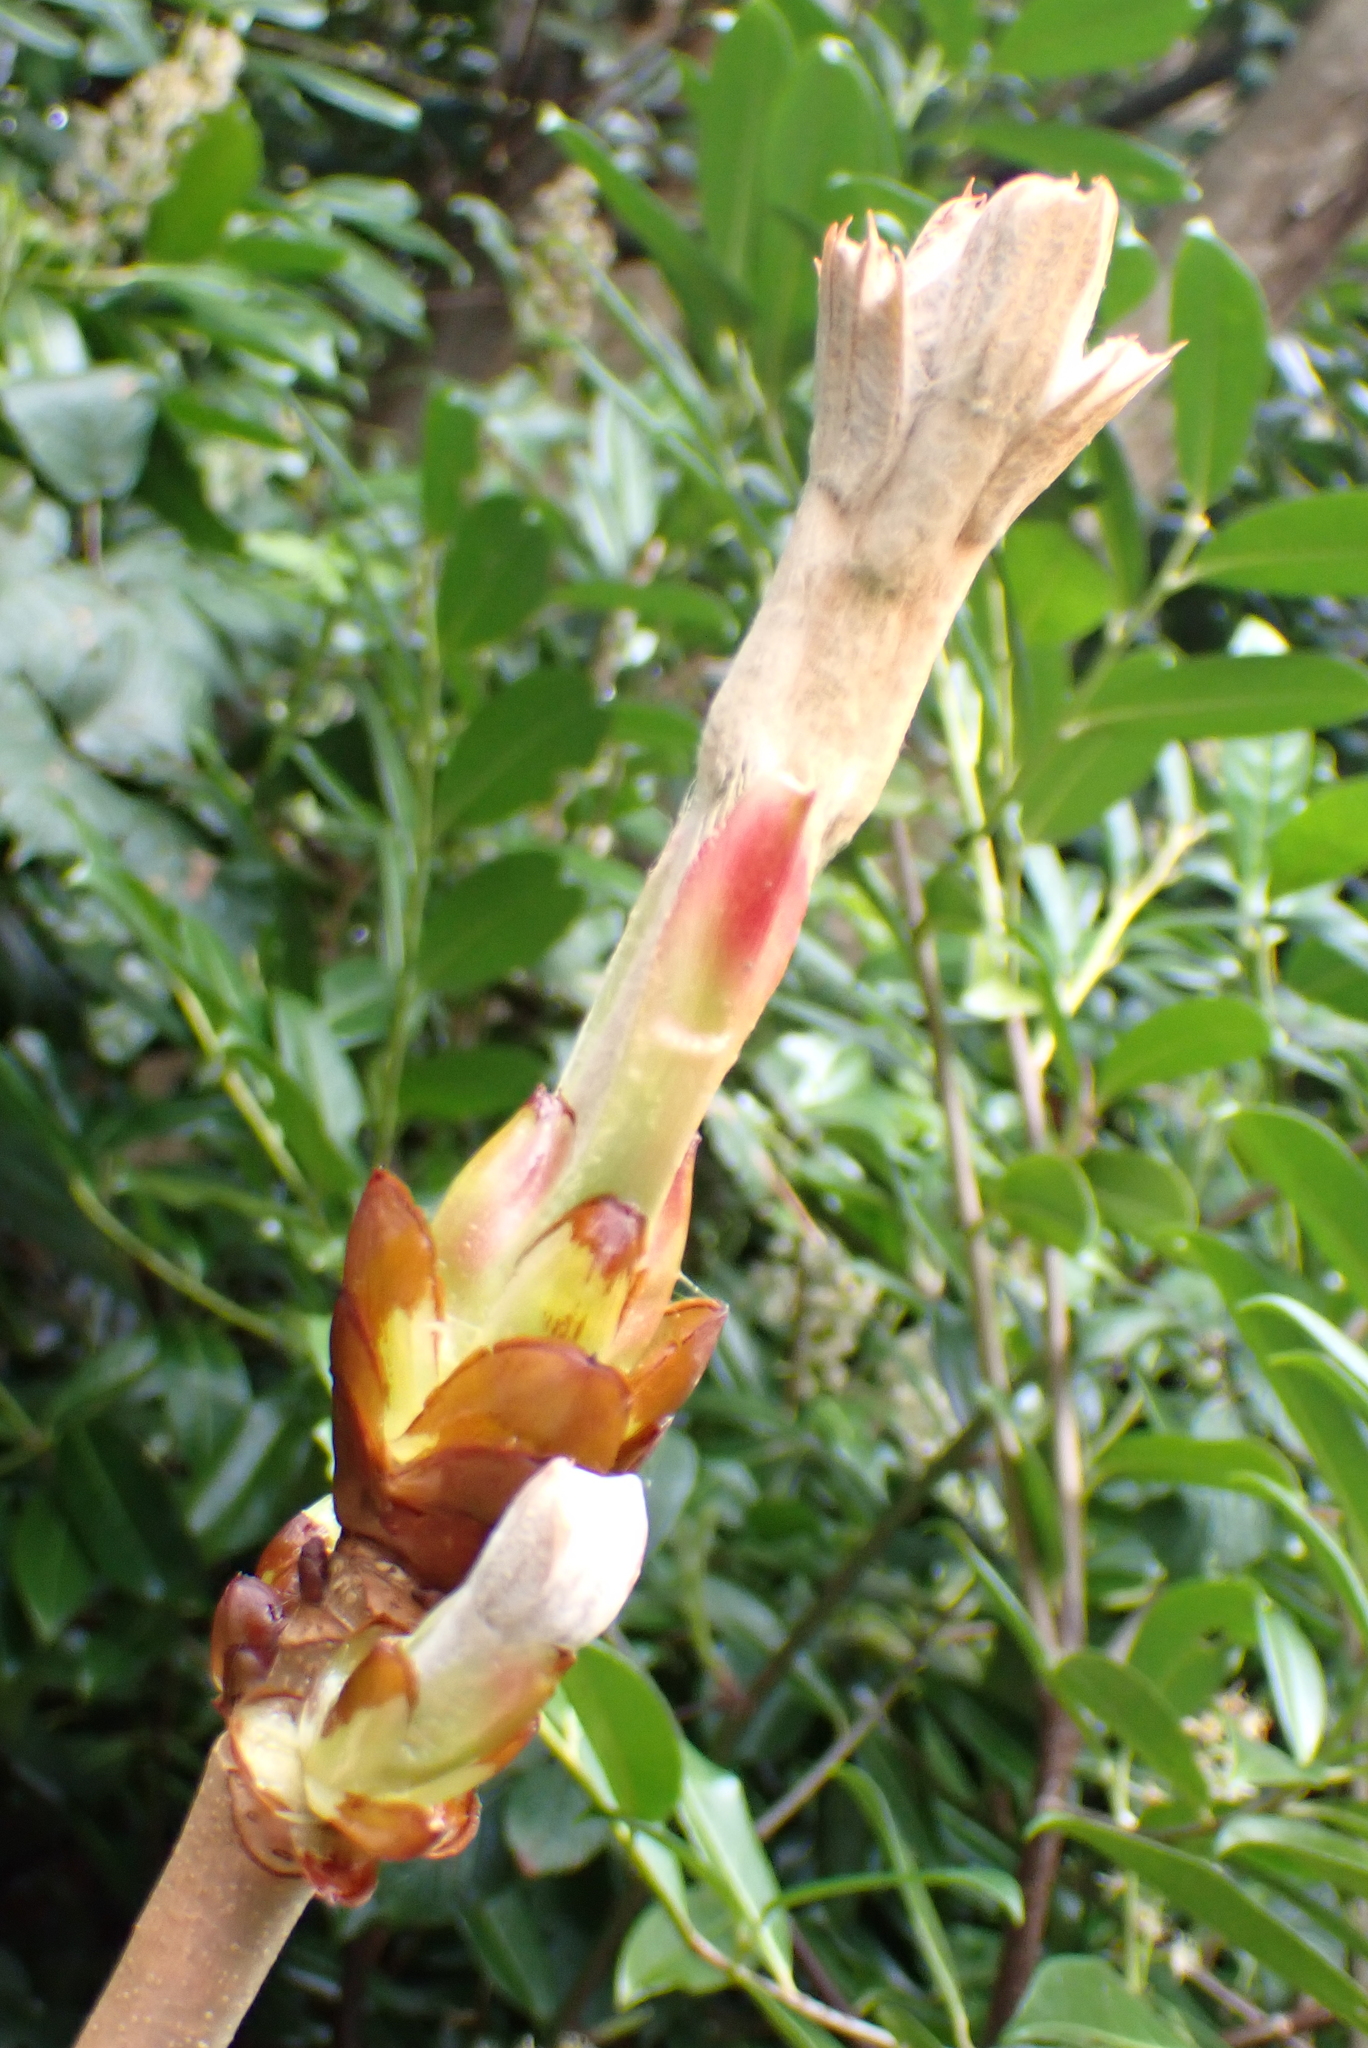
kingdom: Plantae
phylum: Tracheophyta
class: Magnoliopsida
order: Sapindales
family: Sapindaceae
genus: Aesculus
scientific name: Aesculus hippocastanum
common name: Horse-chestnut
